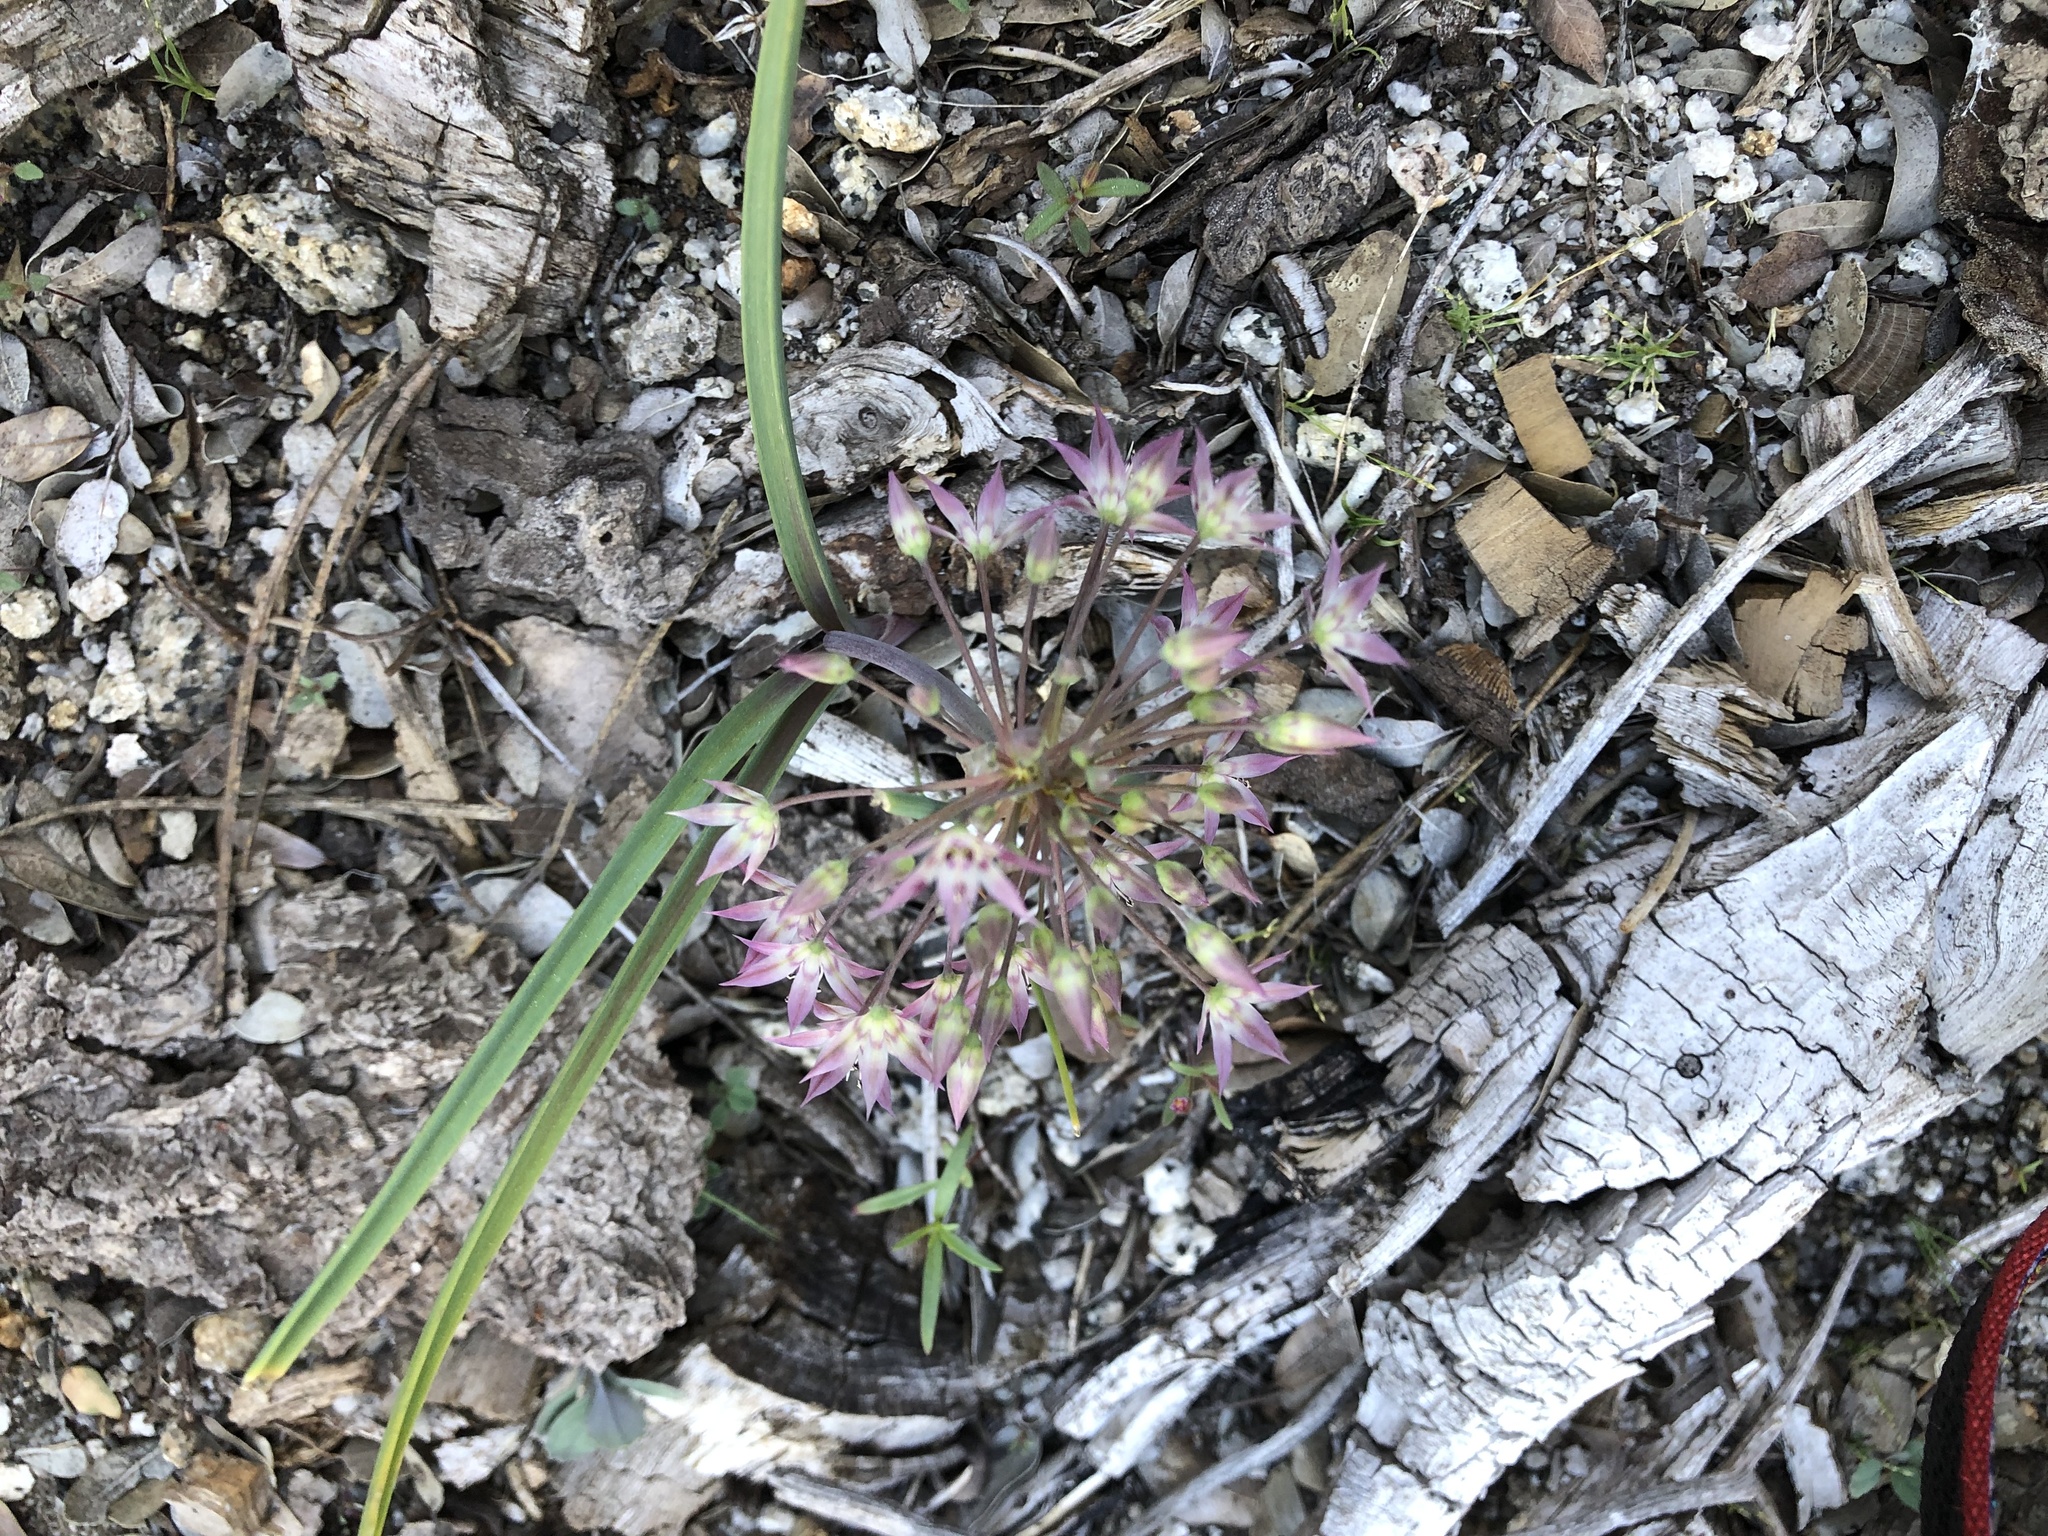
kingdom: Plantae
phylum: Tracheophyta
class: Liliopsida
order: Asparagales
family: Amaryllidaceae
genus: Allium
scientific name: Allium campanulatum
